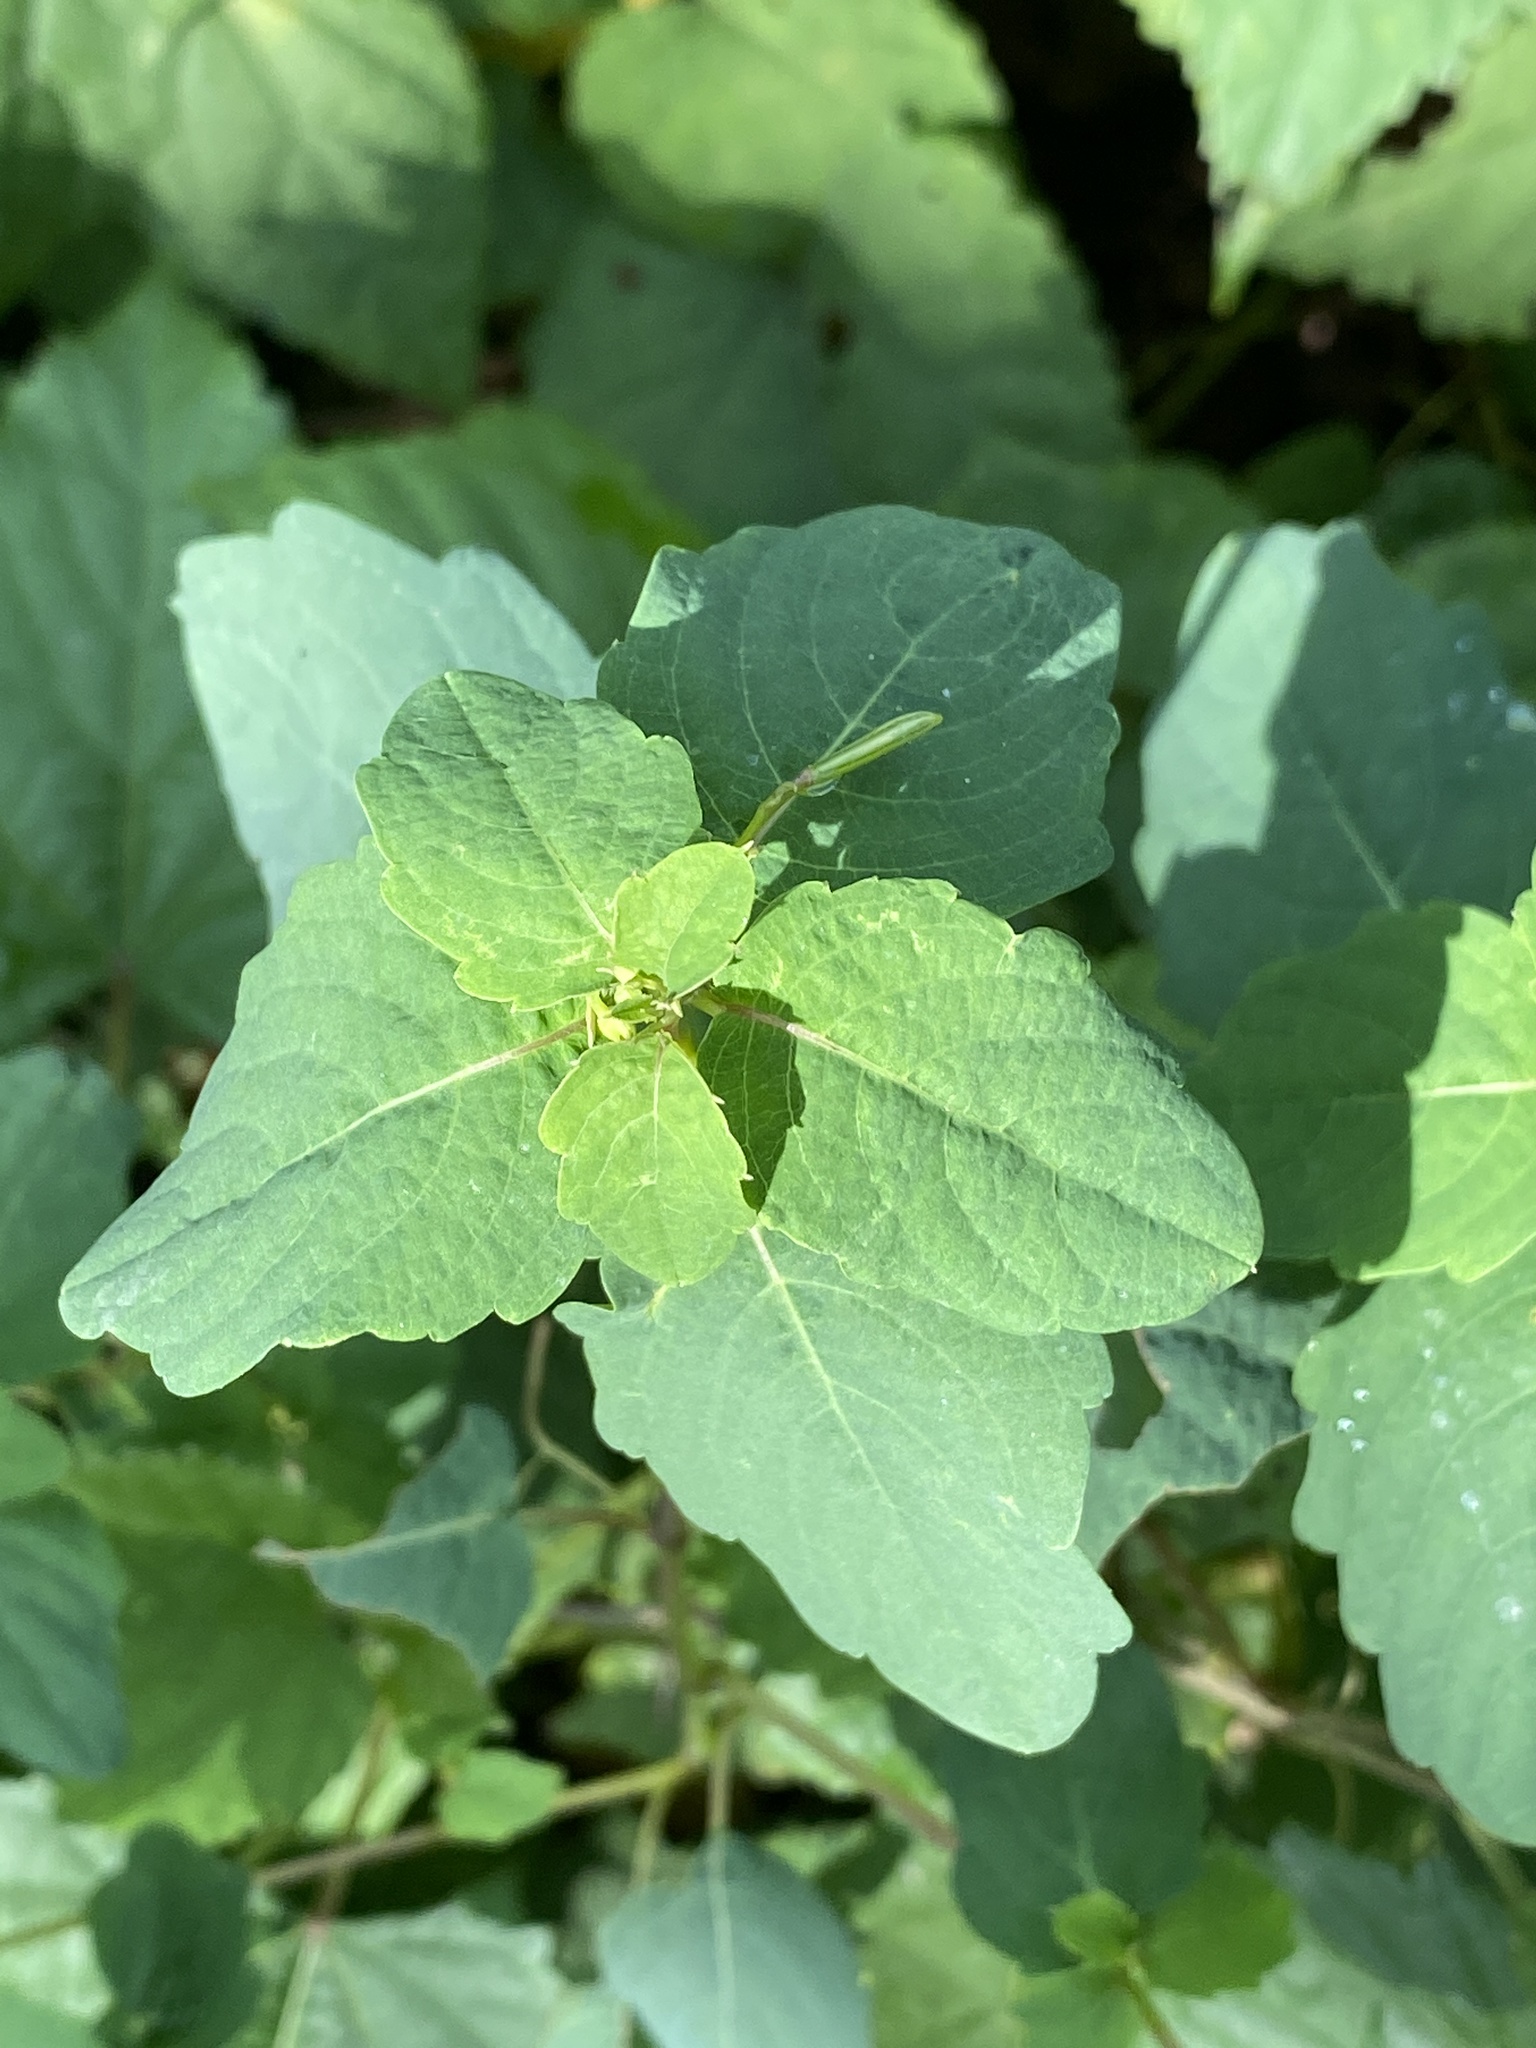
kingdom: Plantae
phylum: Tracheophyta
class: Magnoliopsida
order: Ericales
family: Balsaminaceae
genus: Impatiens
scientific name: Impatiens capensis
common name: Orange balsam
